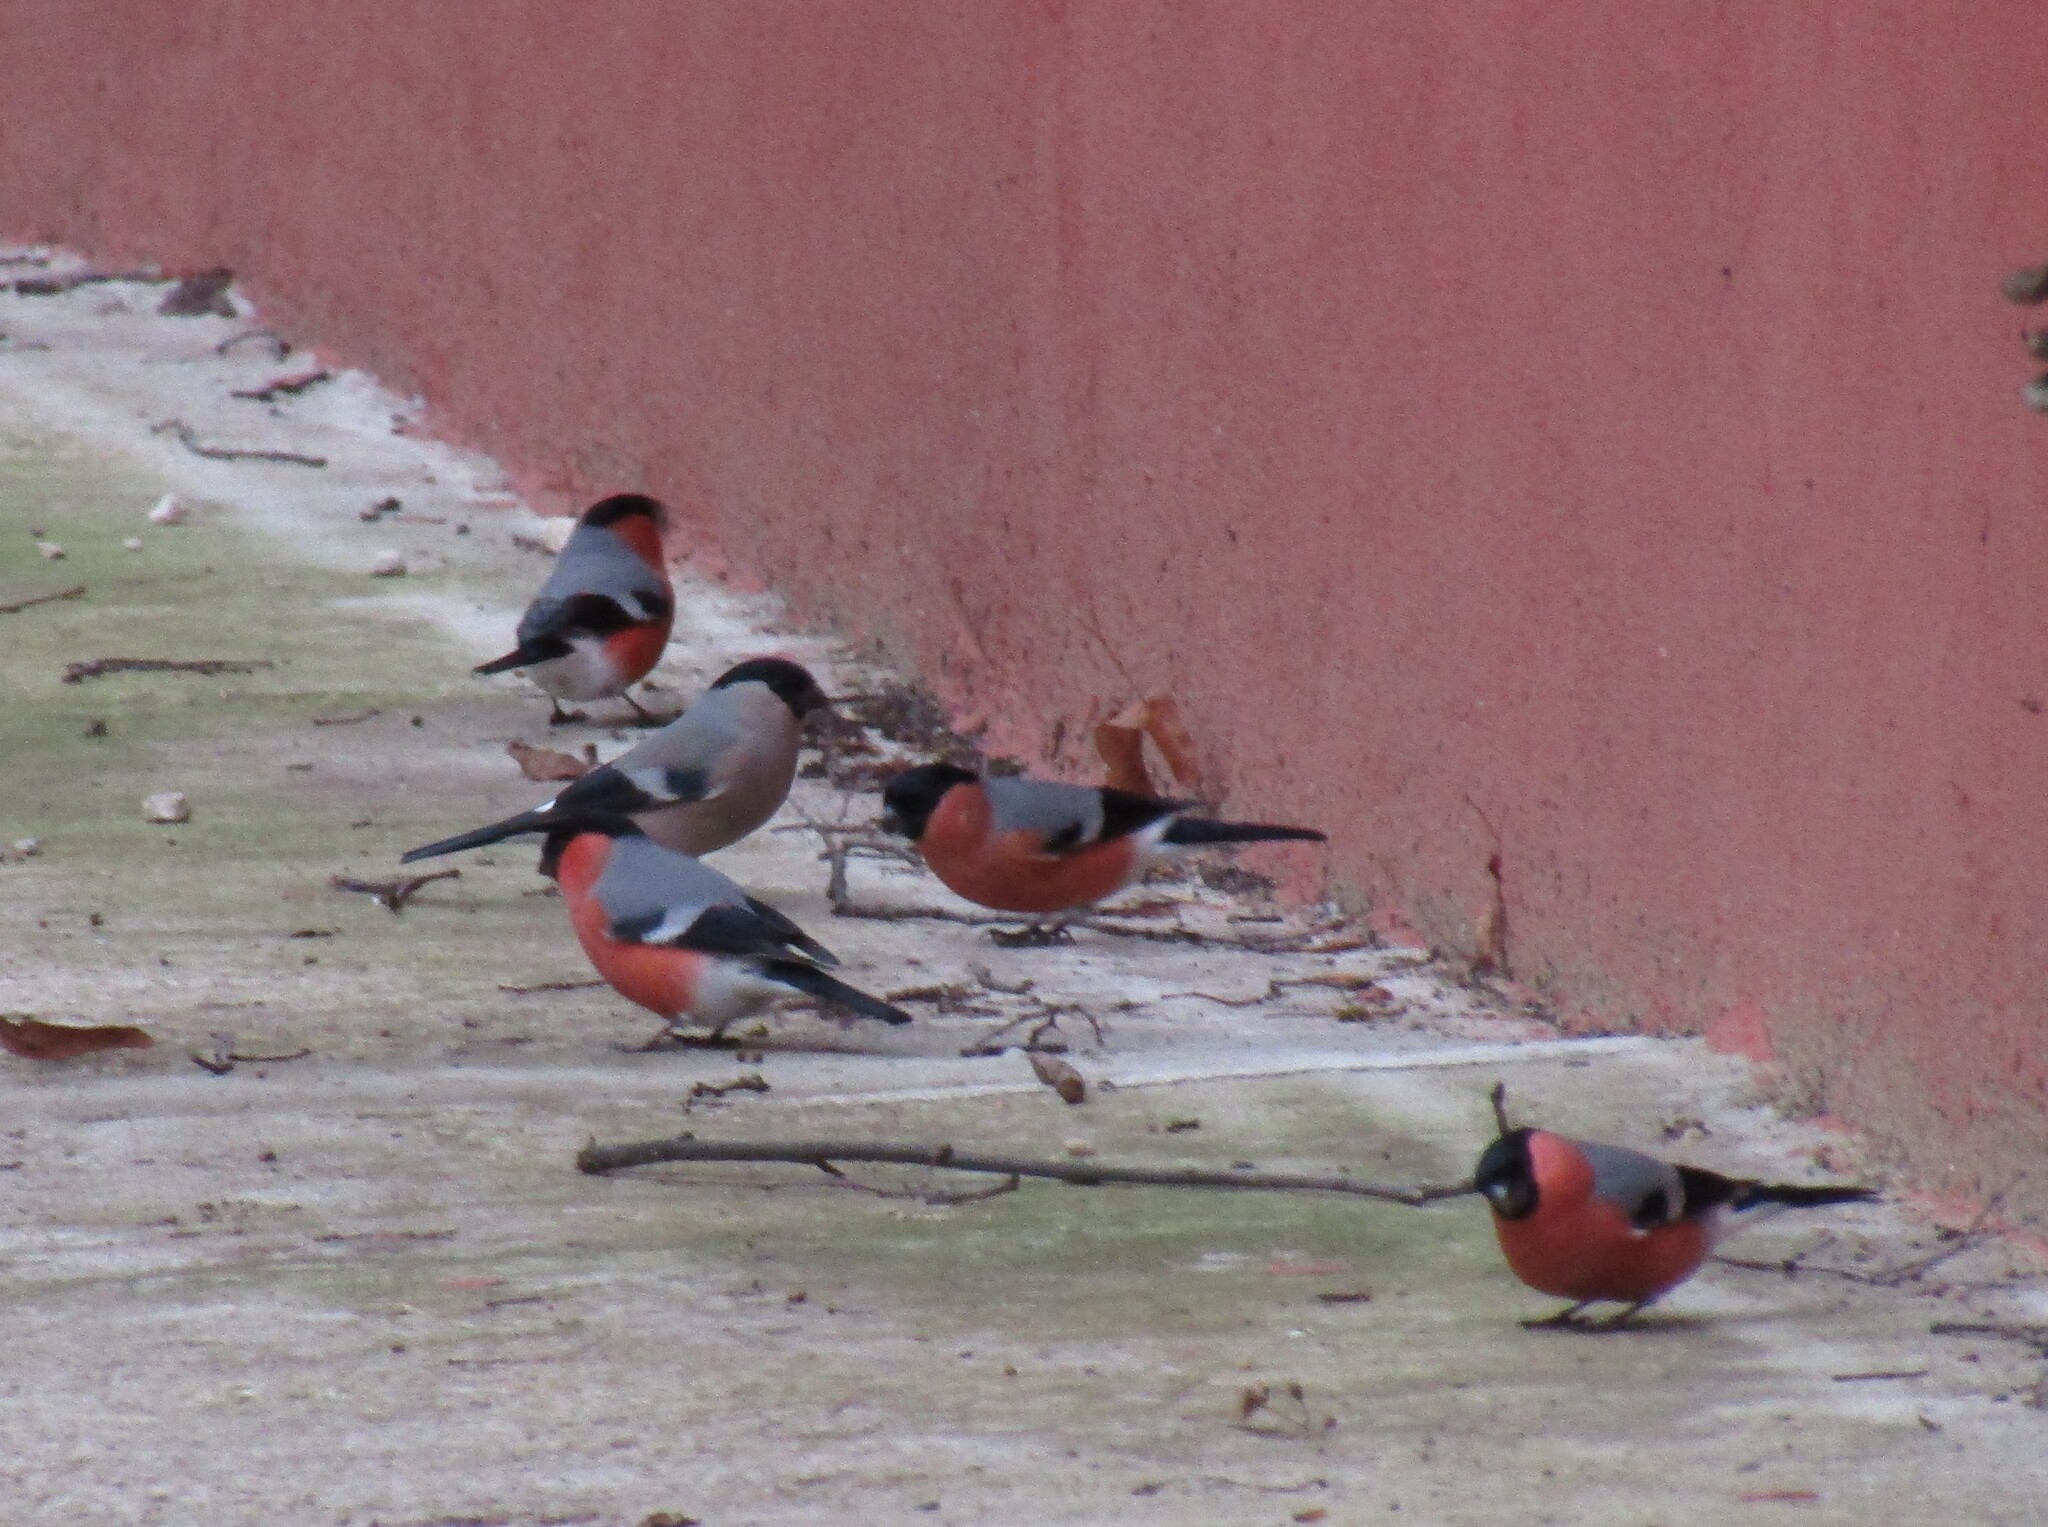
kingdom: Animalia
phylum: Chordata
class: Aves
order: Passeriformes
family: Fringillidae
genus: Pyrrhula
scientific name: Pyrrhula pyrrhula
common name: Eurasian bullfinch
